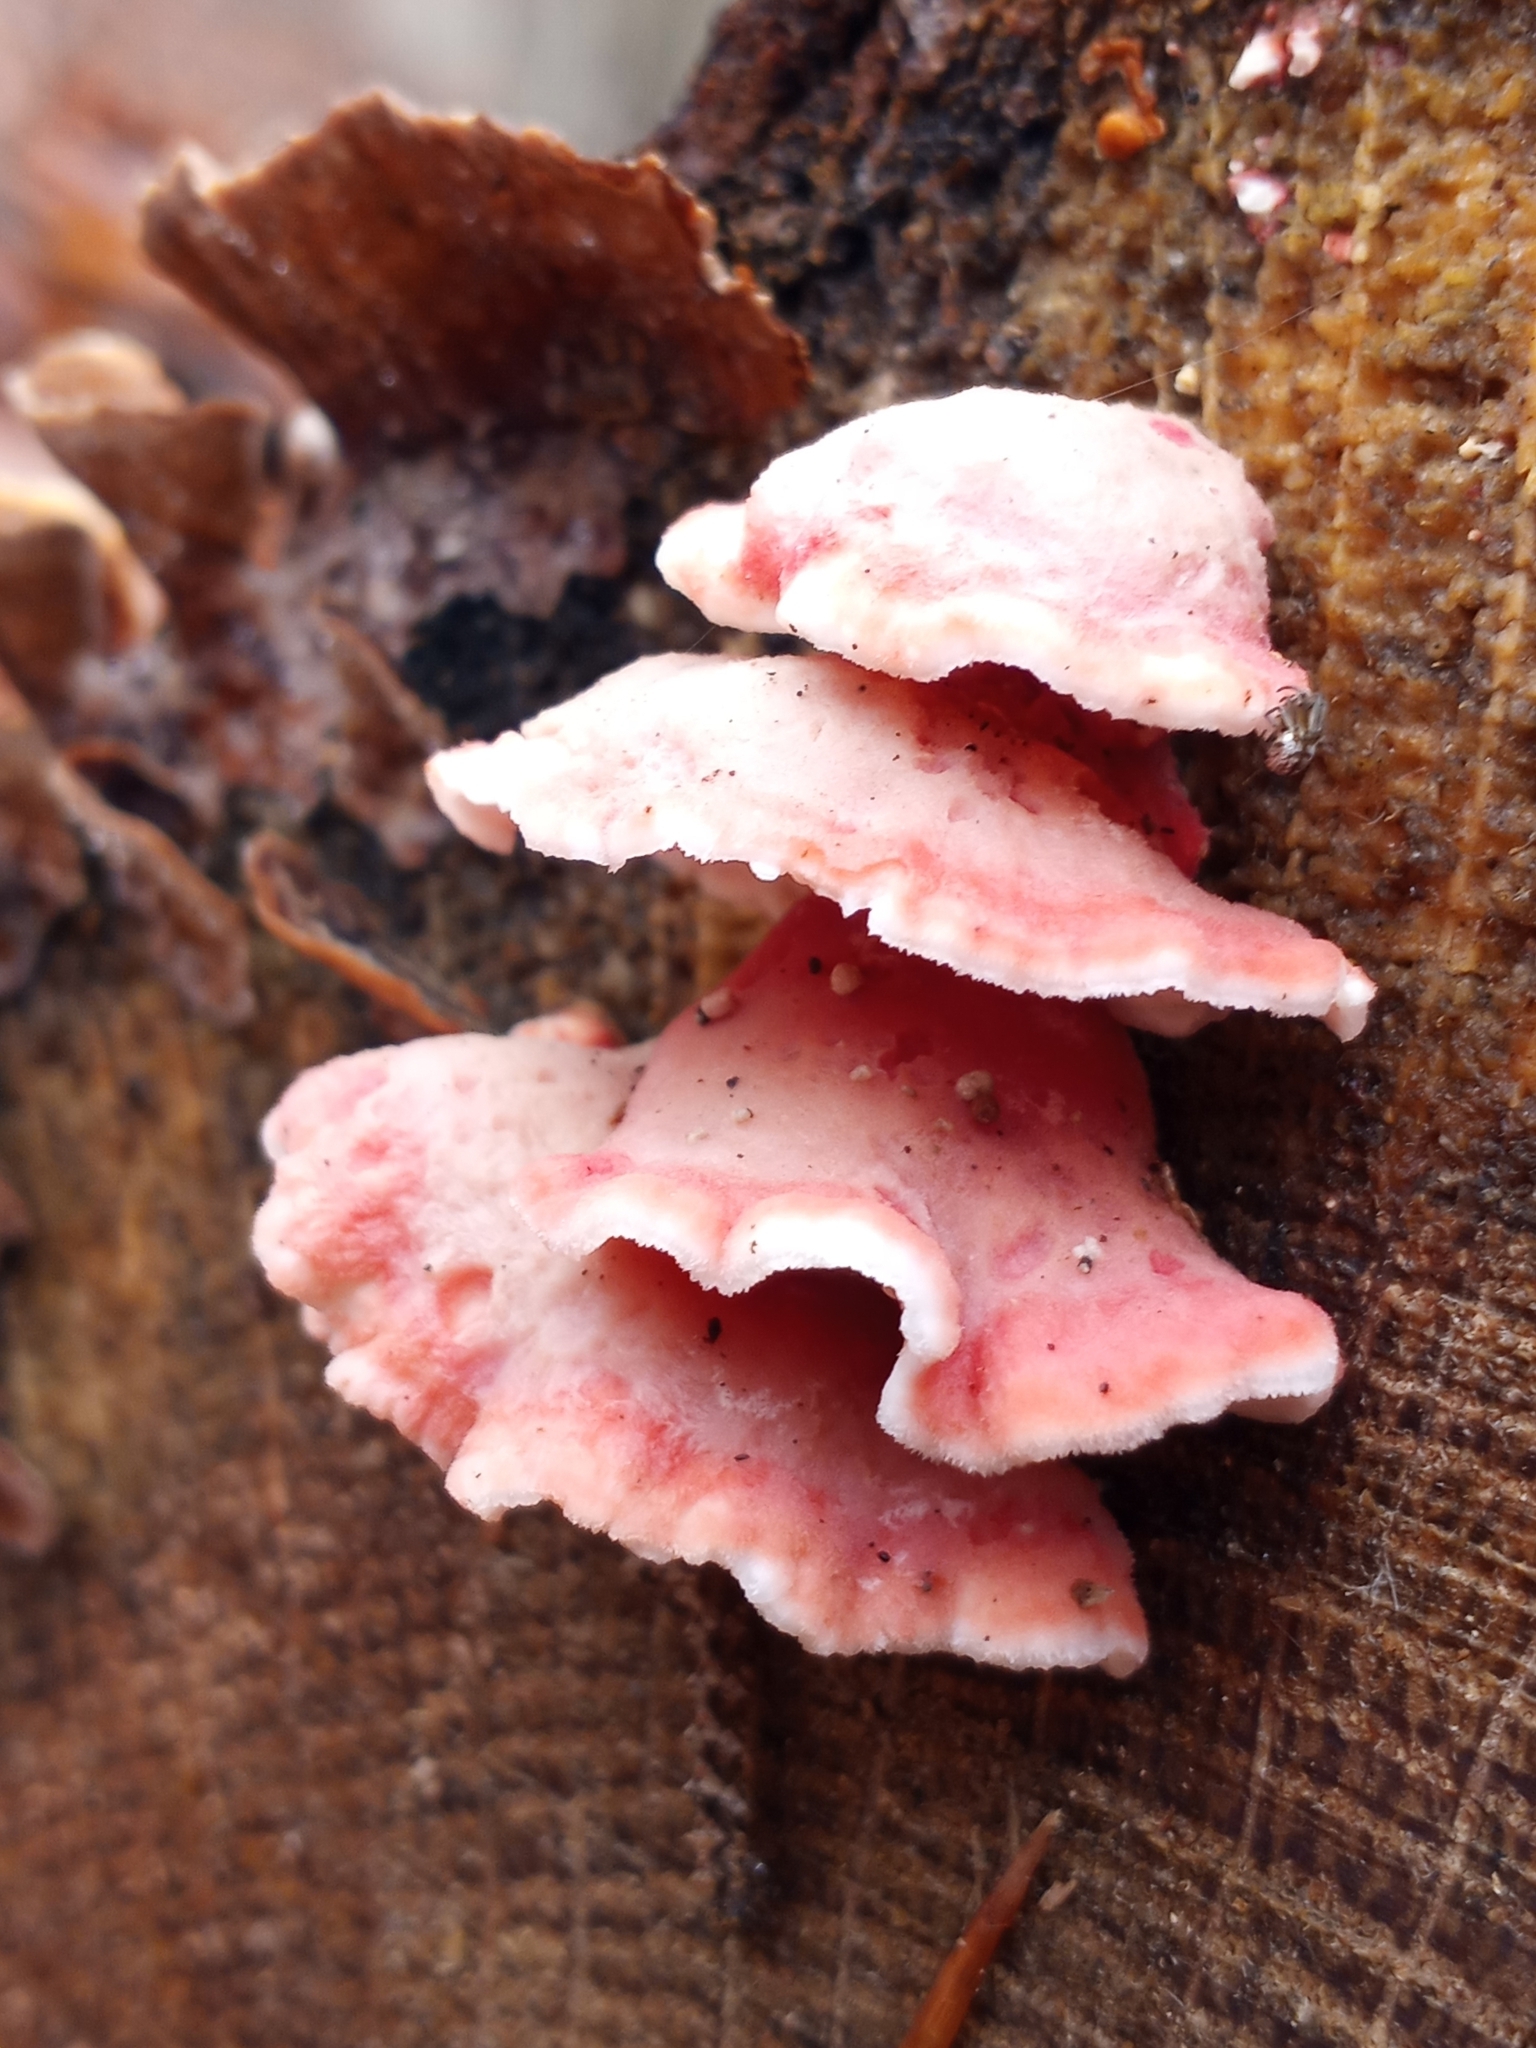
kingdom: Fungi
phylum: Basidiomycota
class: Agaricomycetes
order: Polyporales
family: Irpicaceae
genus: Byssomerulius
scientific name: Byssomerulius incarnatus
